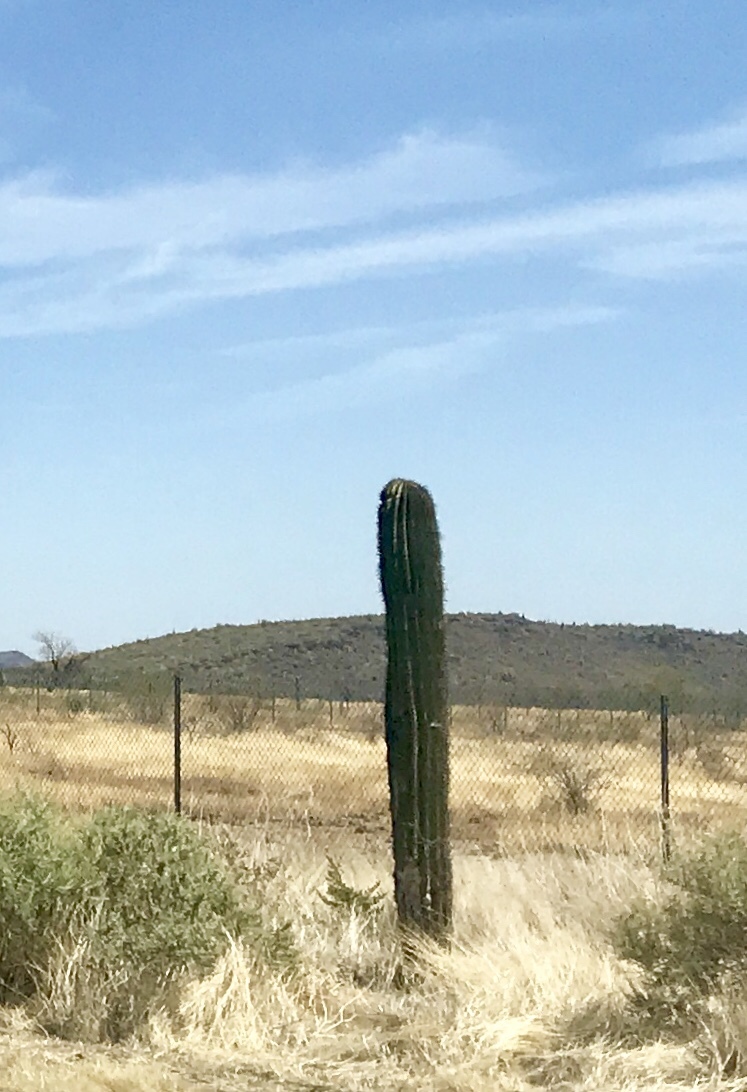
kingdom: Plantae
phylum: Tracheophyta
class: Magnoliopsida
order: Caryophyllales
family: Cactaceae
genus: Carnegiea
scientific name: Carnegiea gigantea
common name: Saguaro
